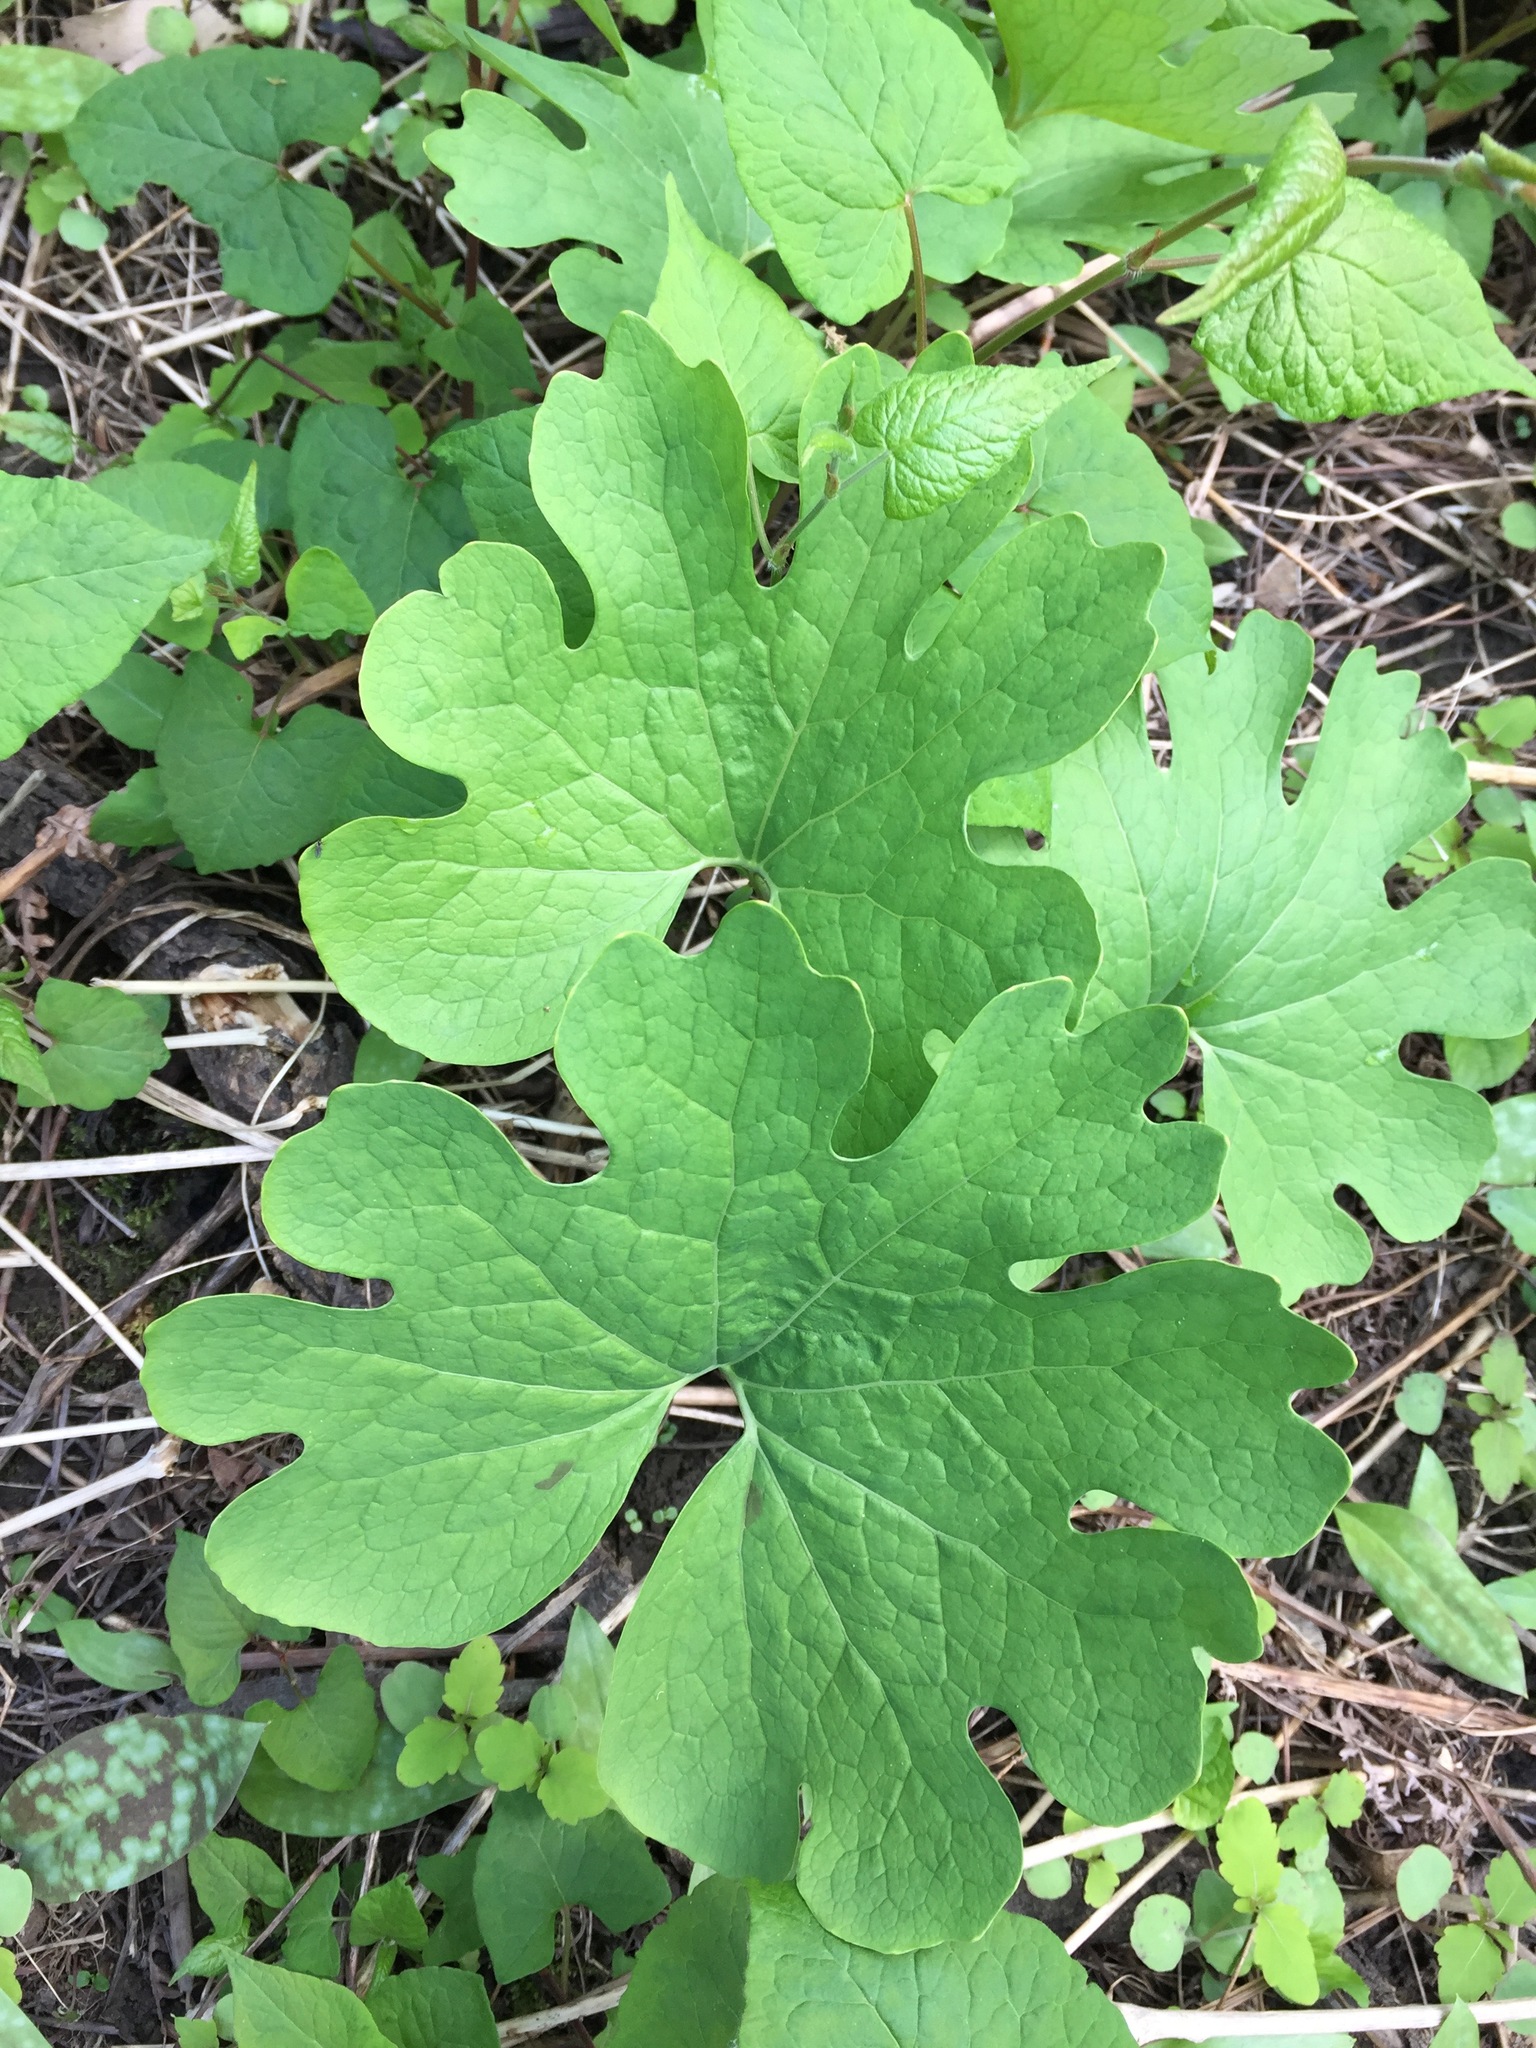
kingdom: Plantae
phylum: Tracheophyta
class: Magnoliopsida
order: Ranunculales
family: Papaveraceae
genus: Sanguinaria
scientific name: Sanguinaria canadensis
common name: Bloodroot
